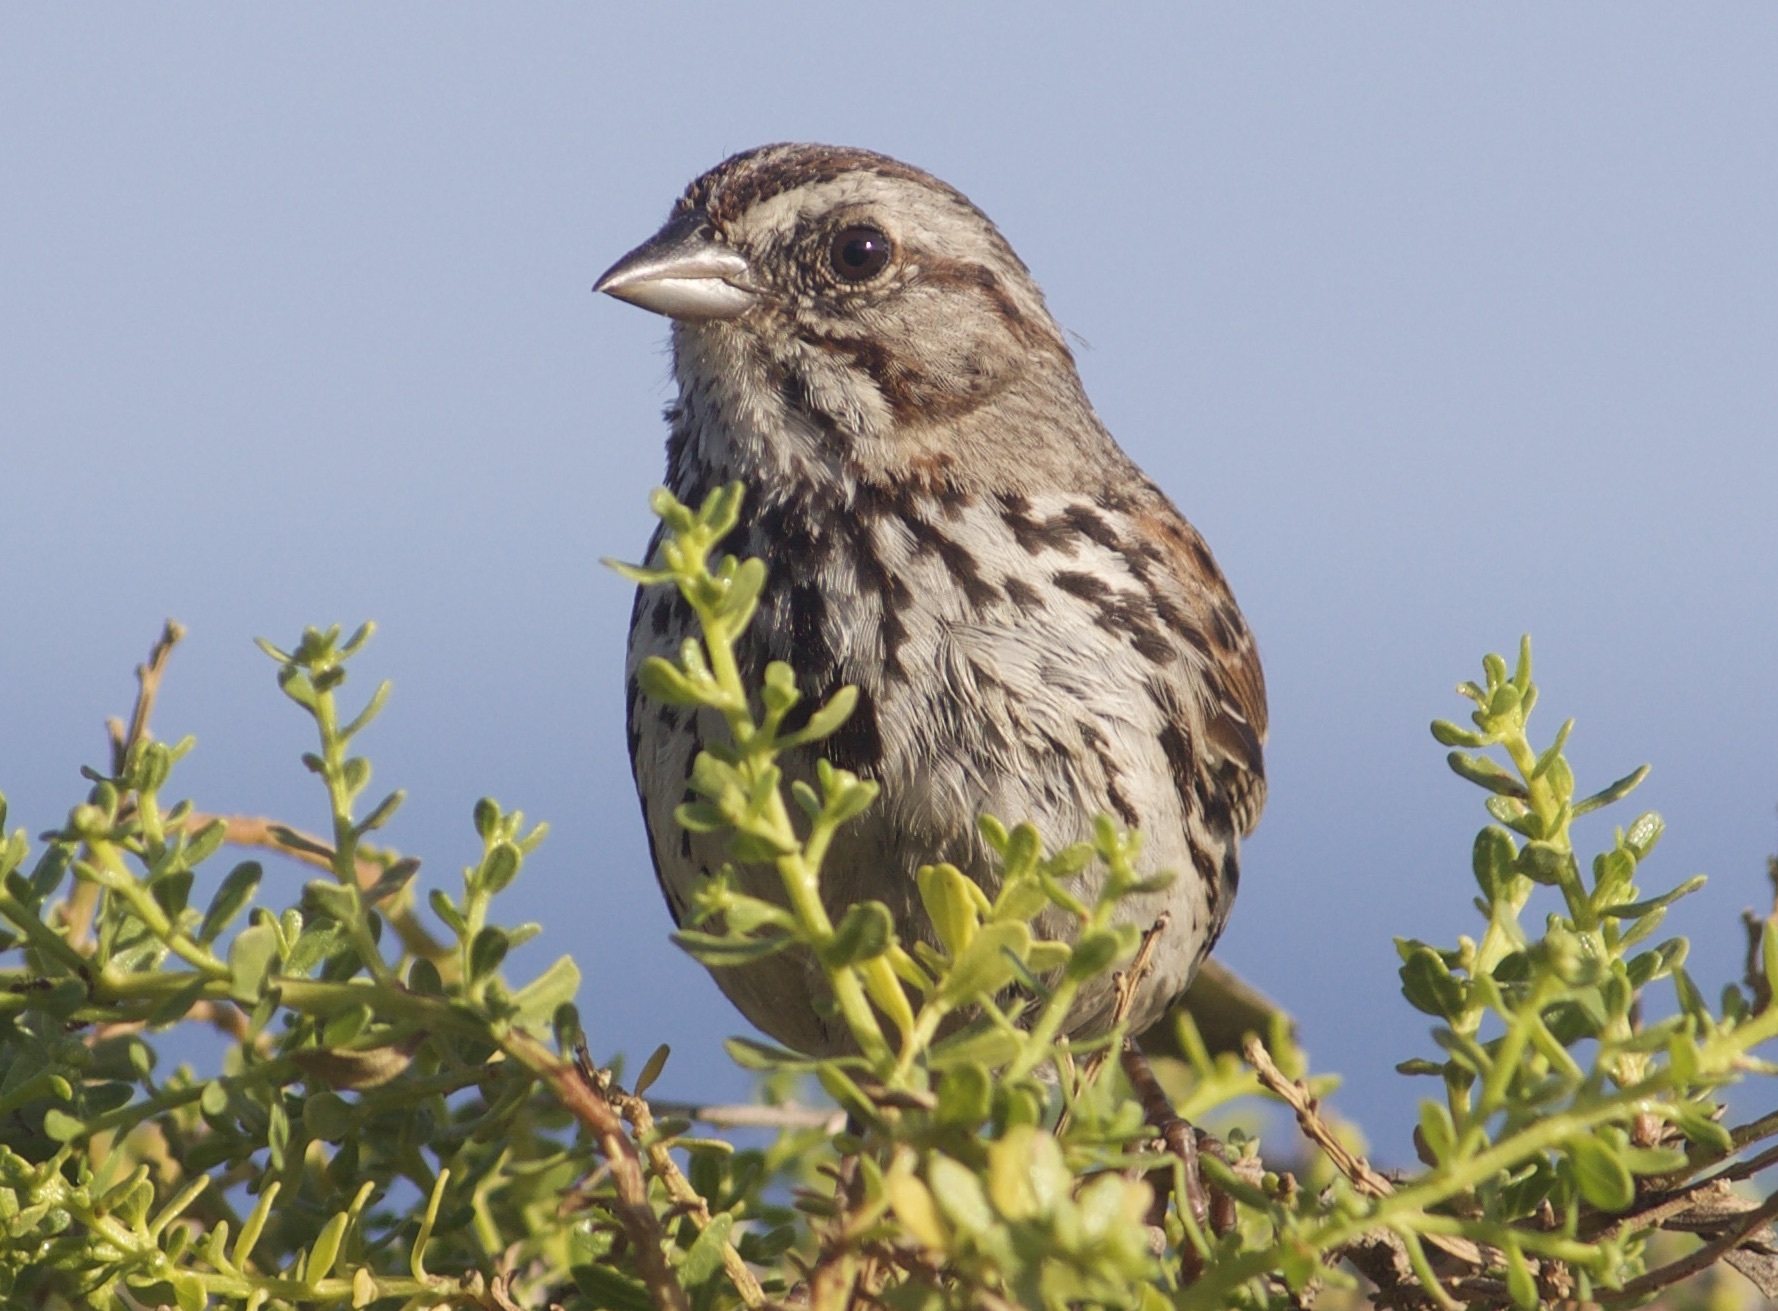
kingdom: Animalia
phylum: Chordata
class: Aves
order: Passeriformes
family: Passerellidae
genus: Melospiza
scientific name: Melospiza melodia
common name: Song sparrow
